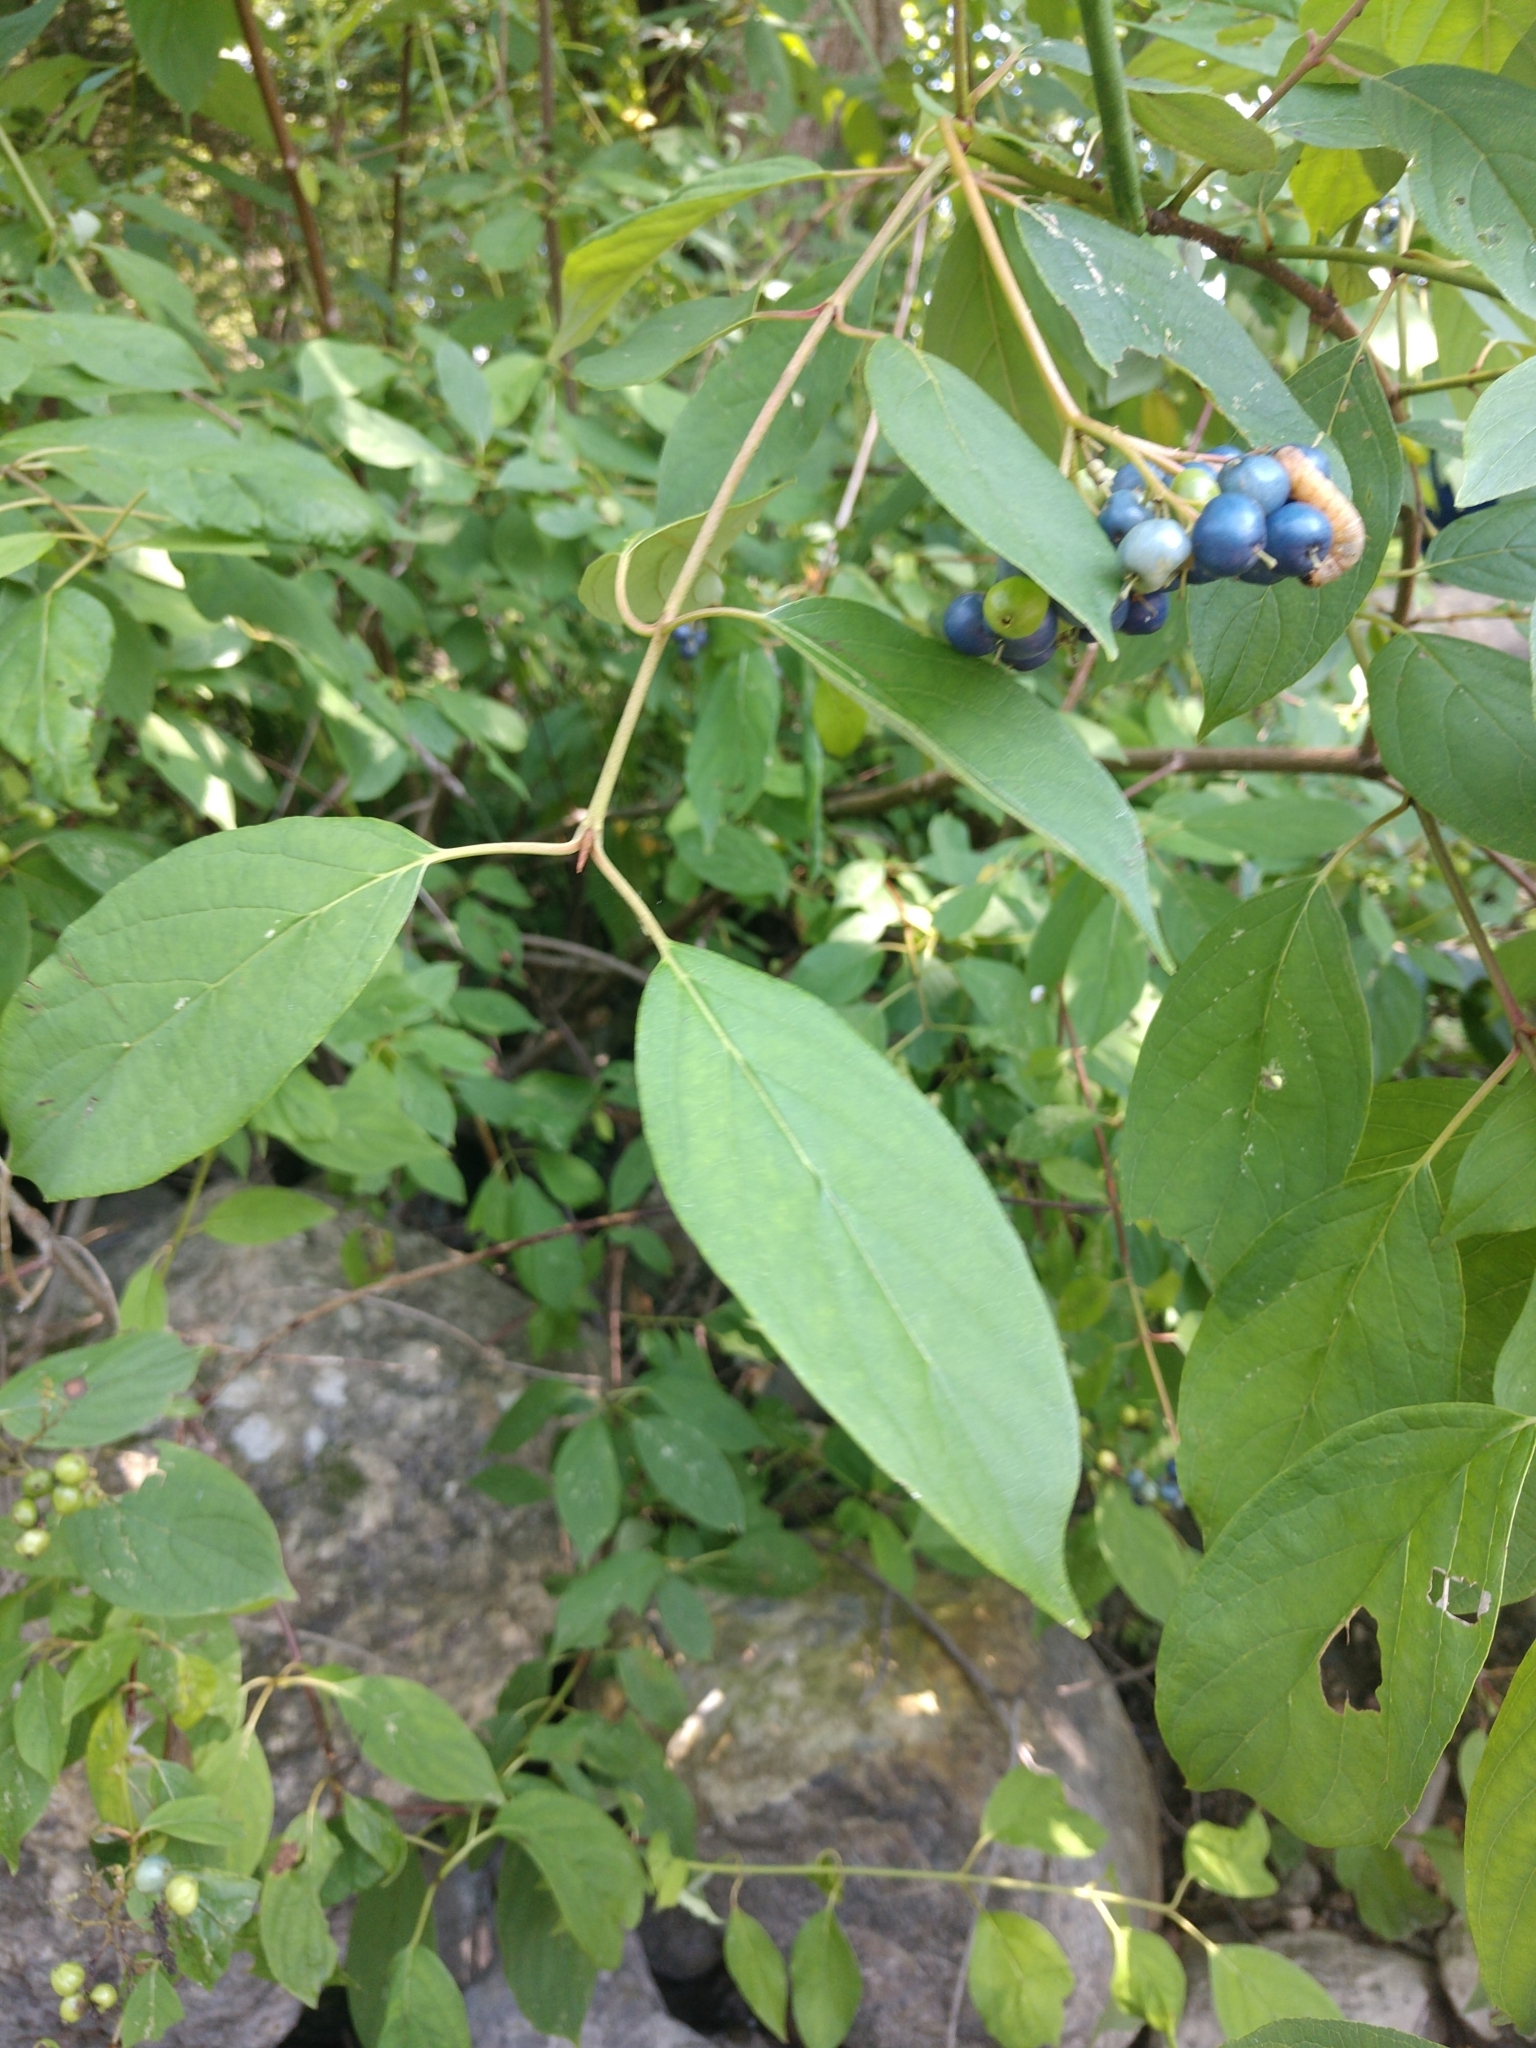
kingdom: Plantae
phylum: Tracheophyta
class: Magnoliopsida
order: Cornales
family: Cornaceae
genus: Cornus
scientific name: Cornus amomum
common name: Silky dogwood
